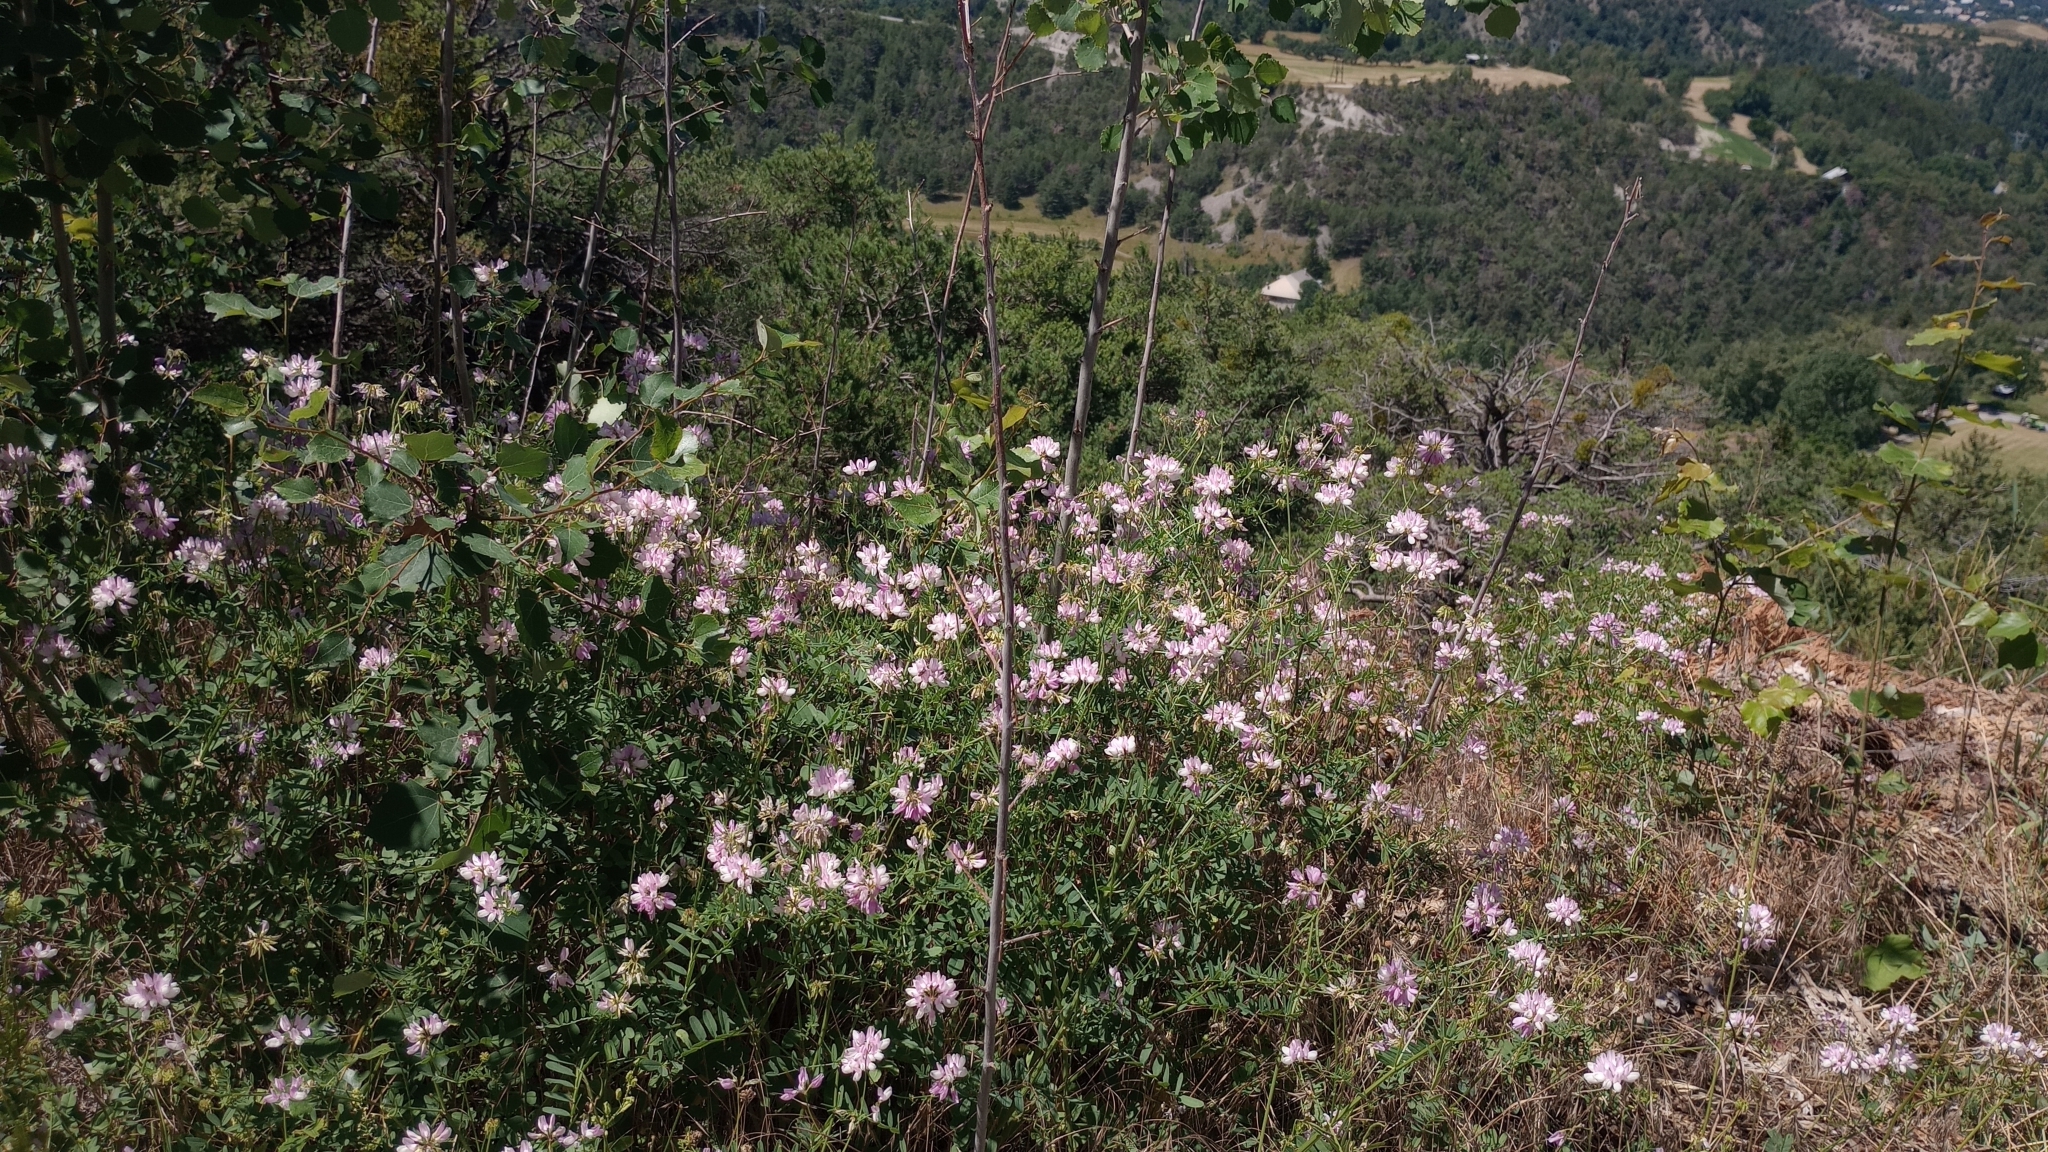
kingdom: Plantae
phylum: Tracheophyta
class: Magnoliopsida
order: Fabales
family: Fabaceae
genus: Coronilla
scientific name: Coronilla varia
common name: Crownvetch
